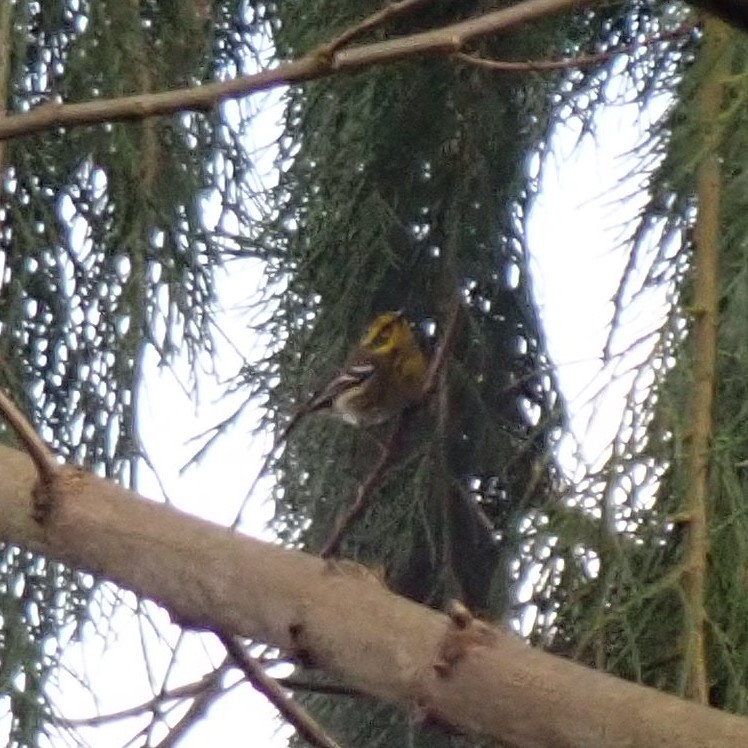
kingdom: Animalia
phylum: Chordata
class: Aves
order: Passeriformes
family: Parulidae
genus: Setophaga
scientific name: Setophaga townsendi
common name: Townsend's warbler
